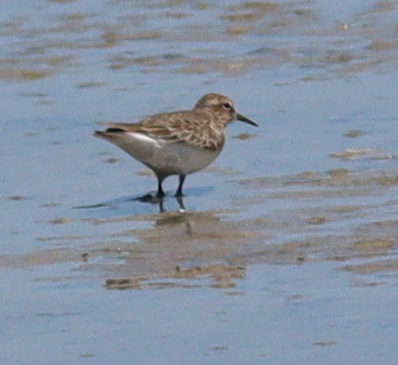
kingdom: Animalia
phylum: Chordata
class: Aves
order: Charadriiformes
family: Scolopacidae
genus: Calidris
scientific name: Calidris temminckii
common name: Temminck's stint
